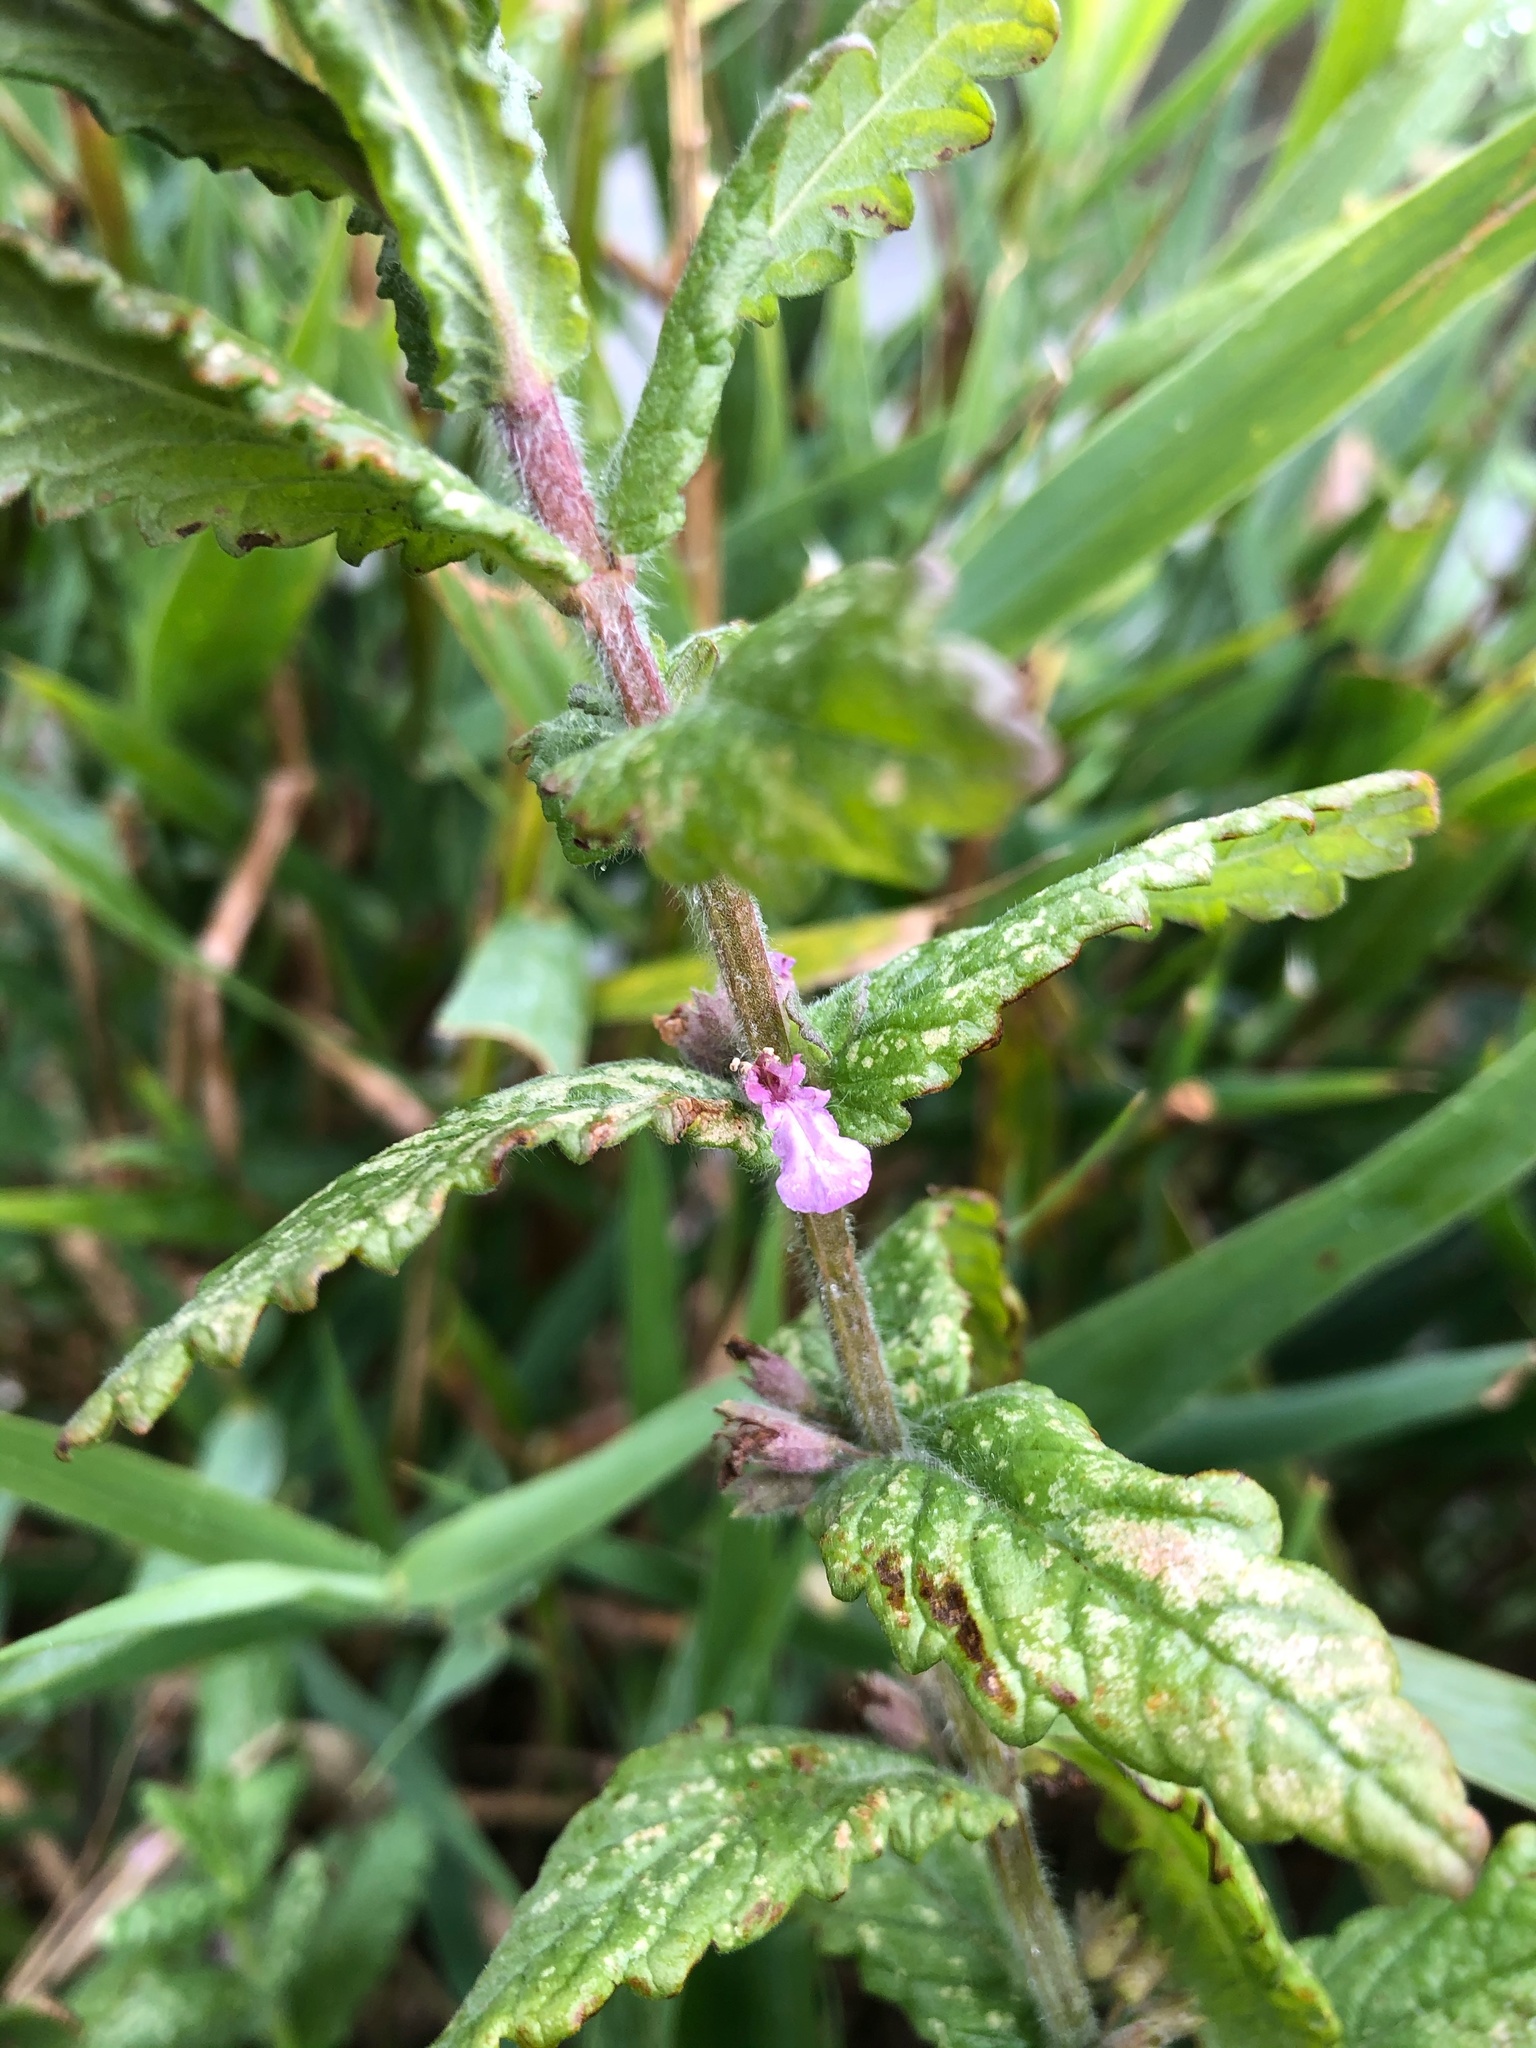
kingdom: Plantae
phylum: Tracheophyta
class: Magnoliopsida
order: Lamiales
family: Lamiaceae
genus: Teucrium
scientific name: Teucrium scordium
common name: Water germander
